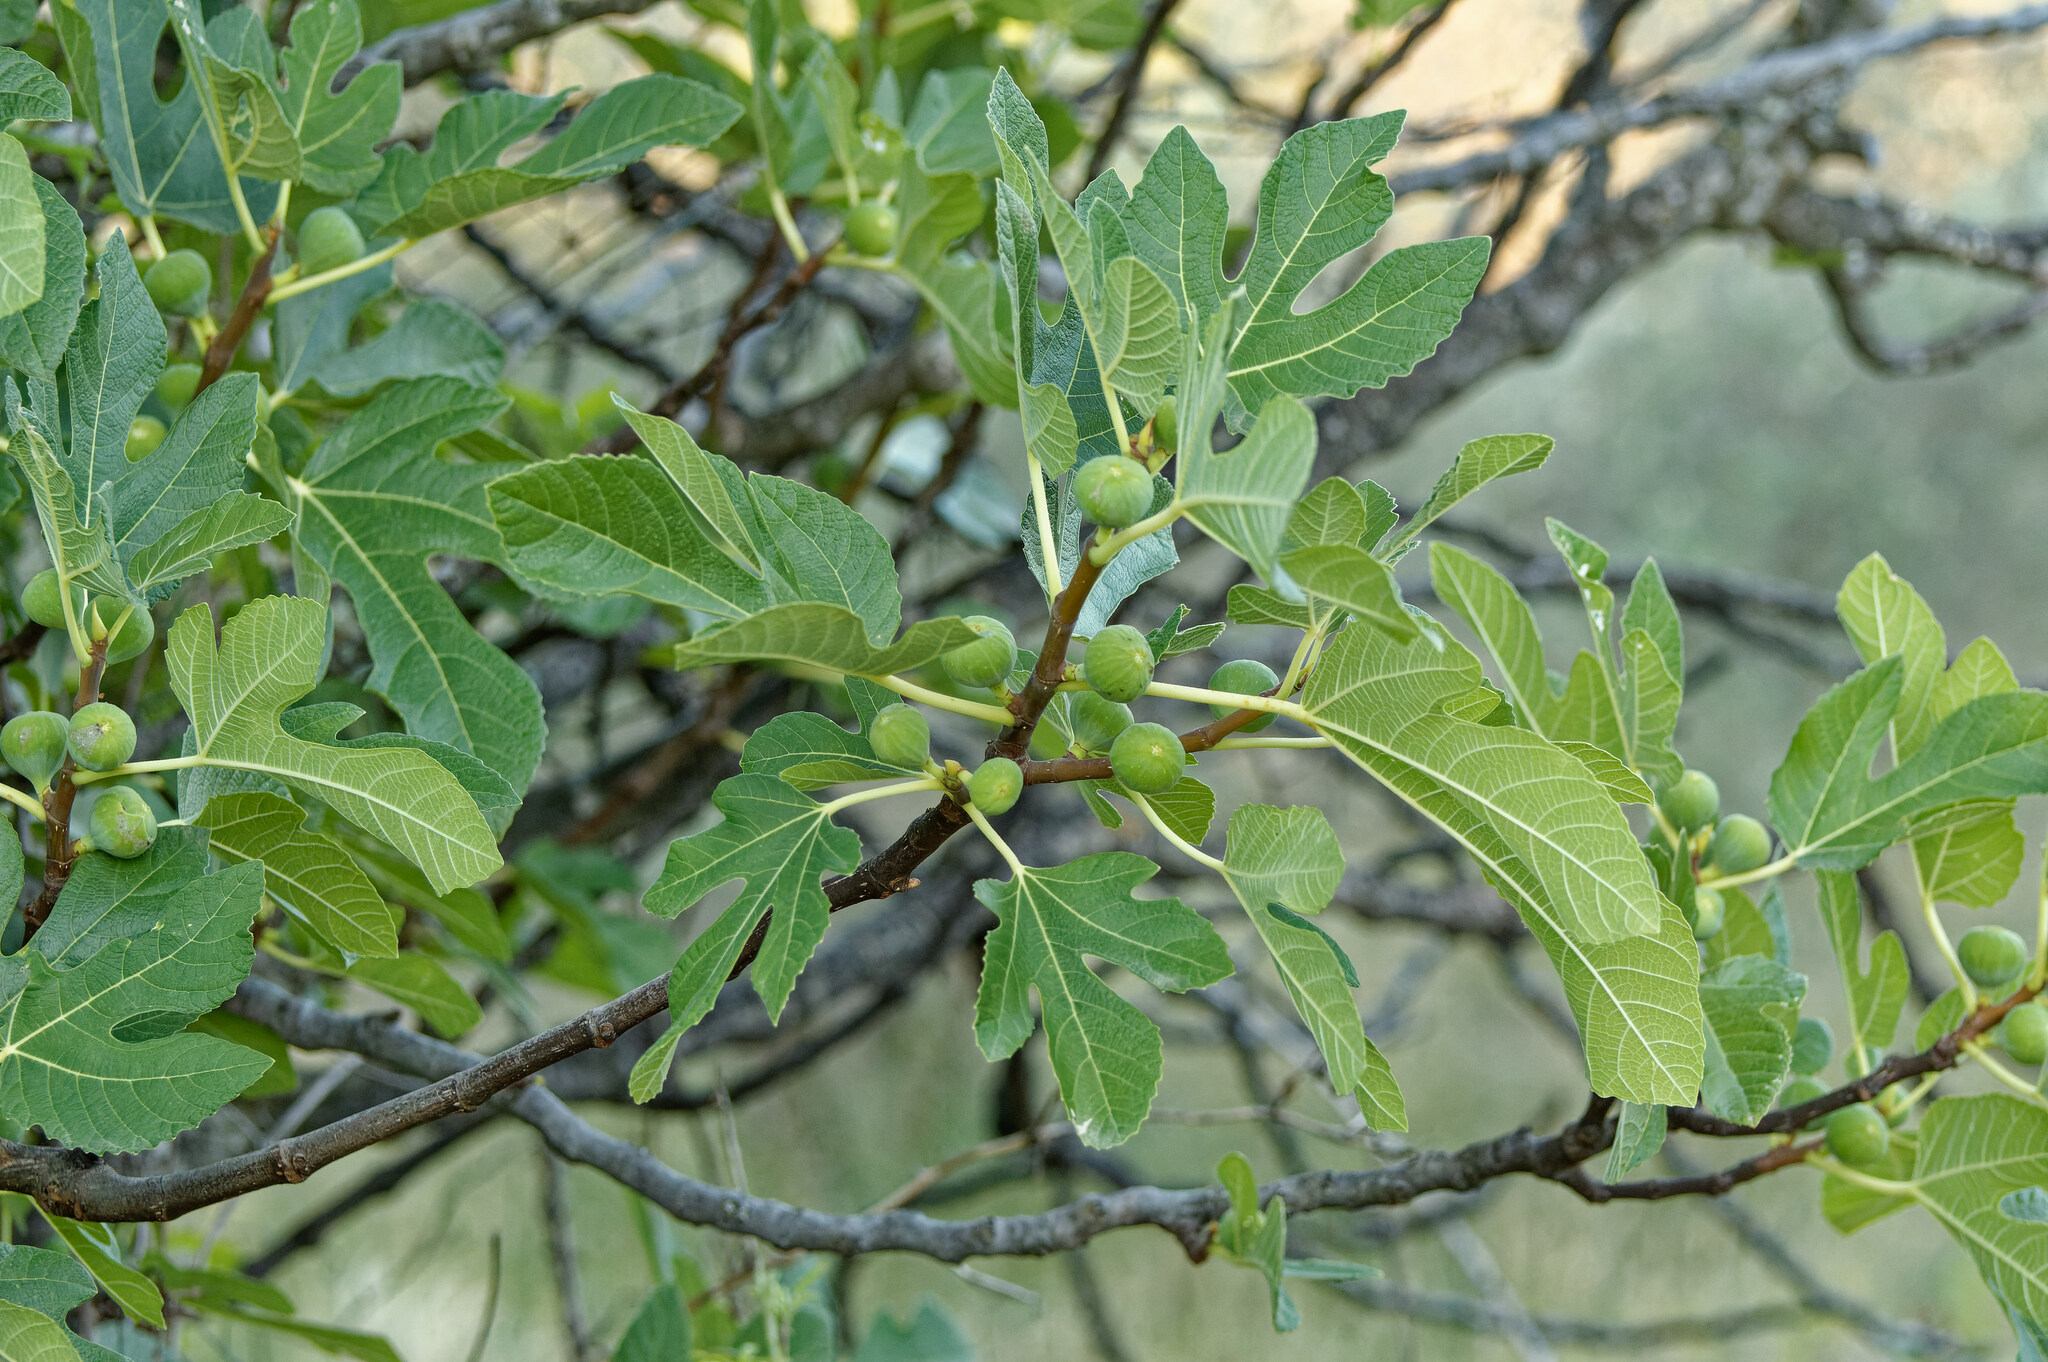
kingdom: Plantae
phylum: Tracheophyta
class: Magnoliopsida
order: Rosales
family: Moraceae
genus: Ficus
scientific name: Ficus carica
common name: Fig
